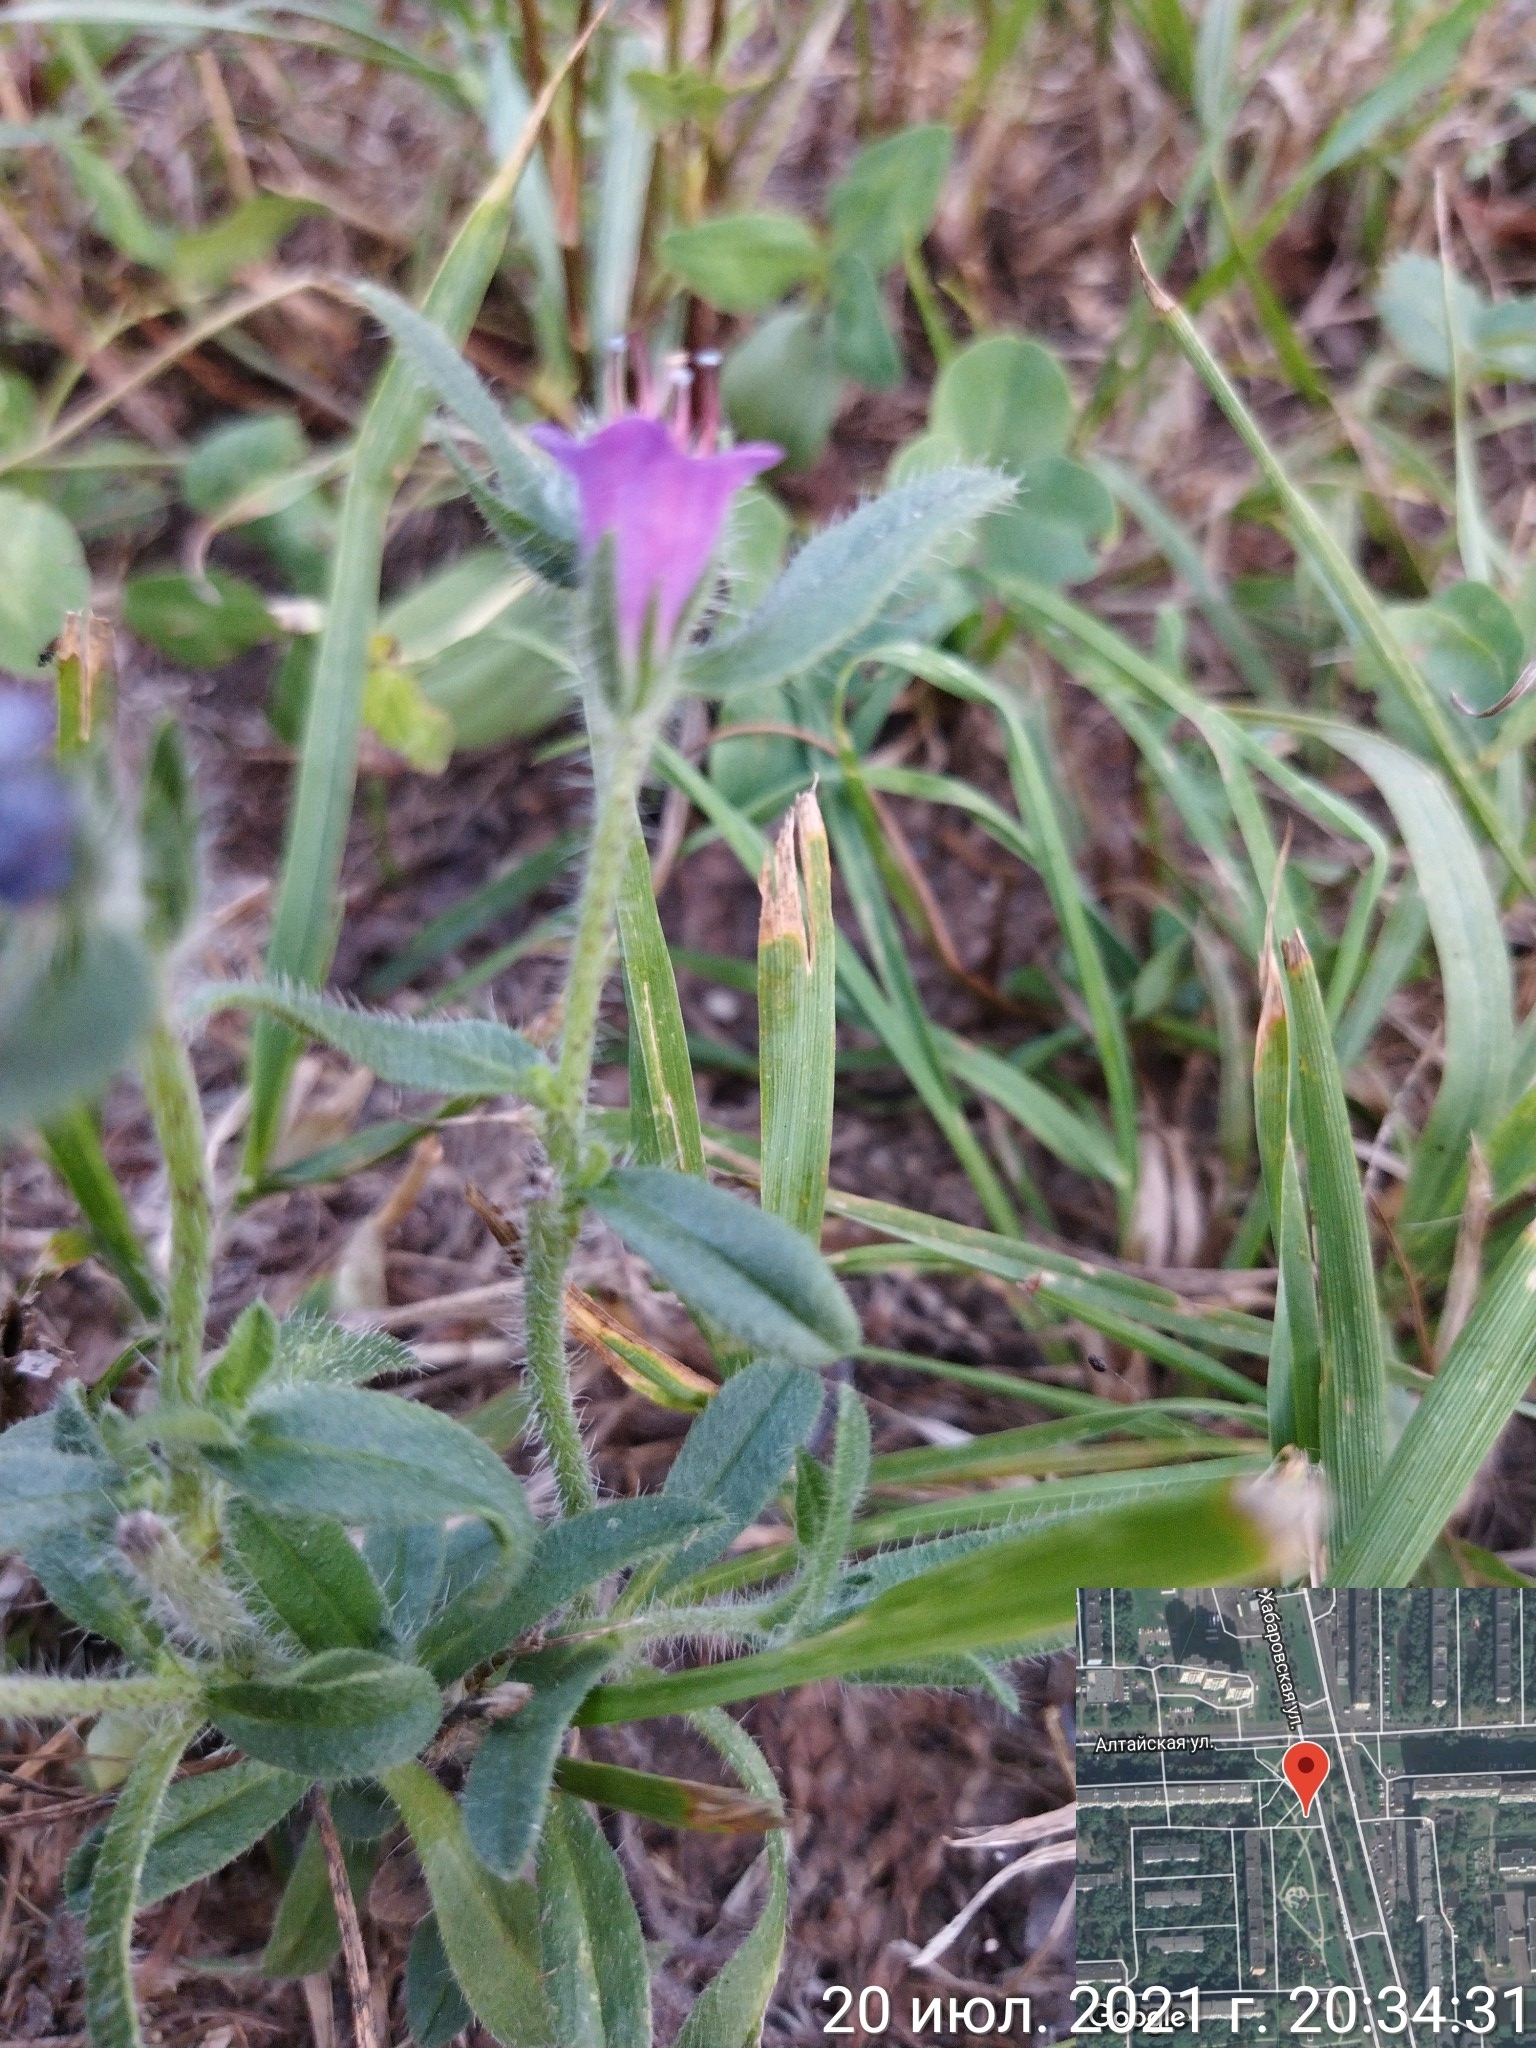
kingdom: Plantae
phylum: Tracheophyta
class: Magnoliopsida
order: Boraginales
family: Boraginaceae
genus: Echium
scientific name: Echium vulgare
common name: Common viper's bugloss
